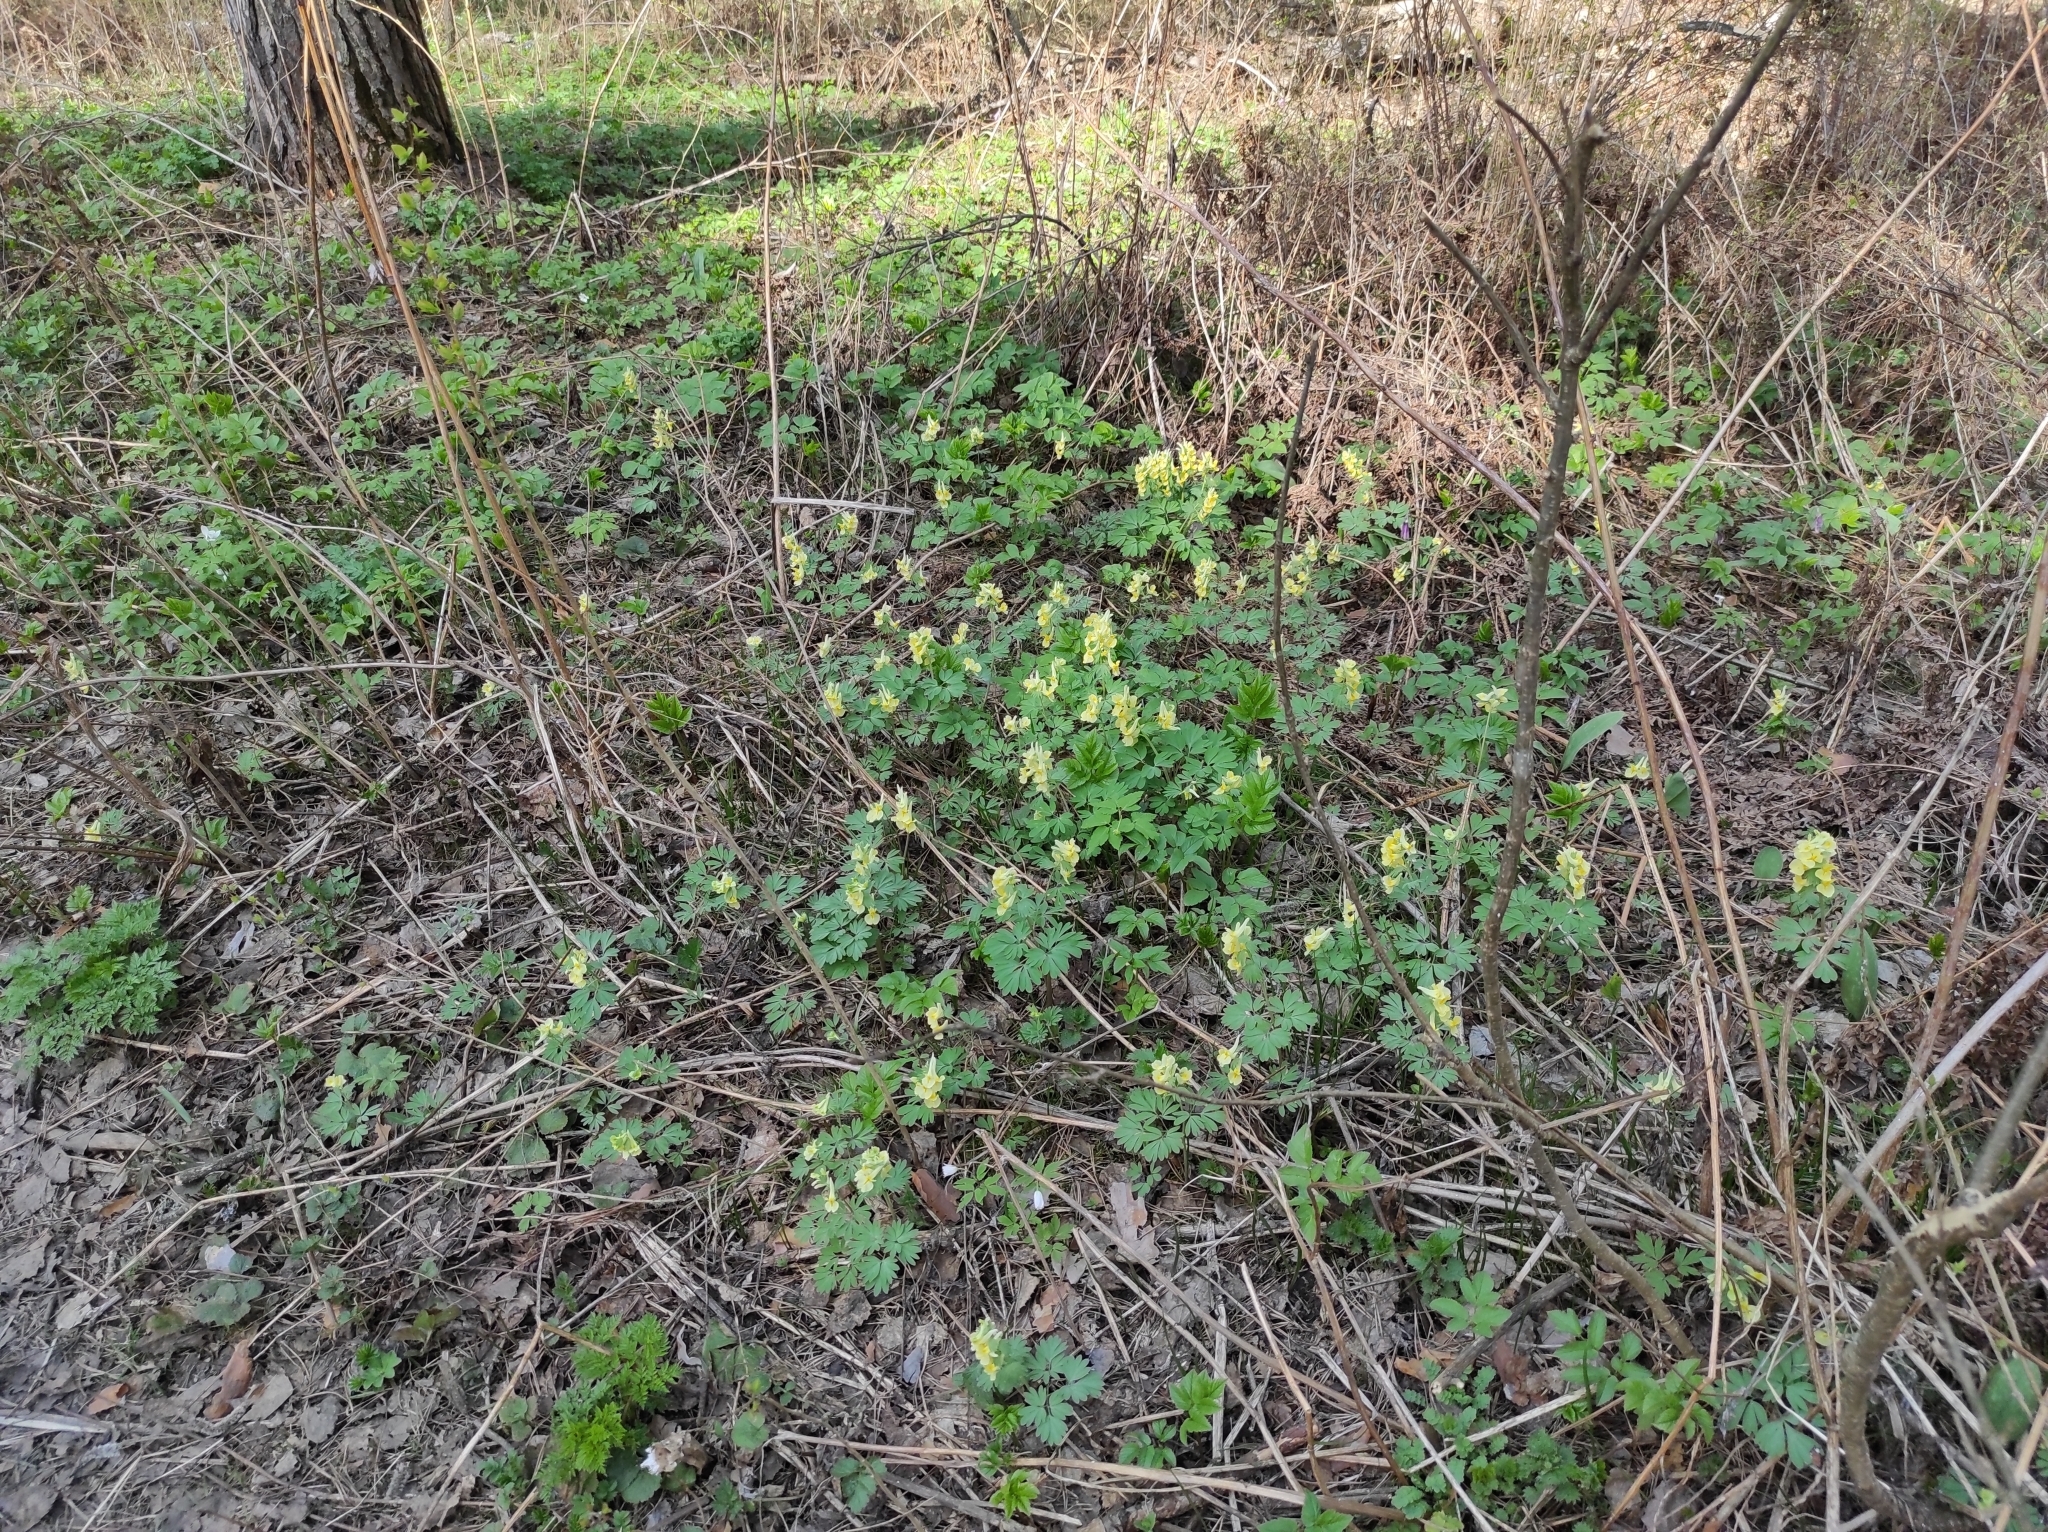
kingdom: Plantae
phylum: Tracheophyta
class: Magnoliopsida
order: Ranunculales
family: Papaveraceae
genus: Corydalis
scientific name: Corydalis bracteata
